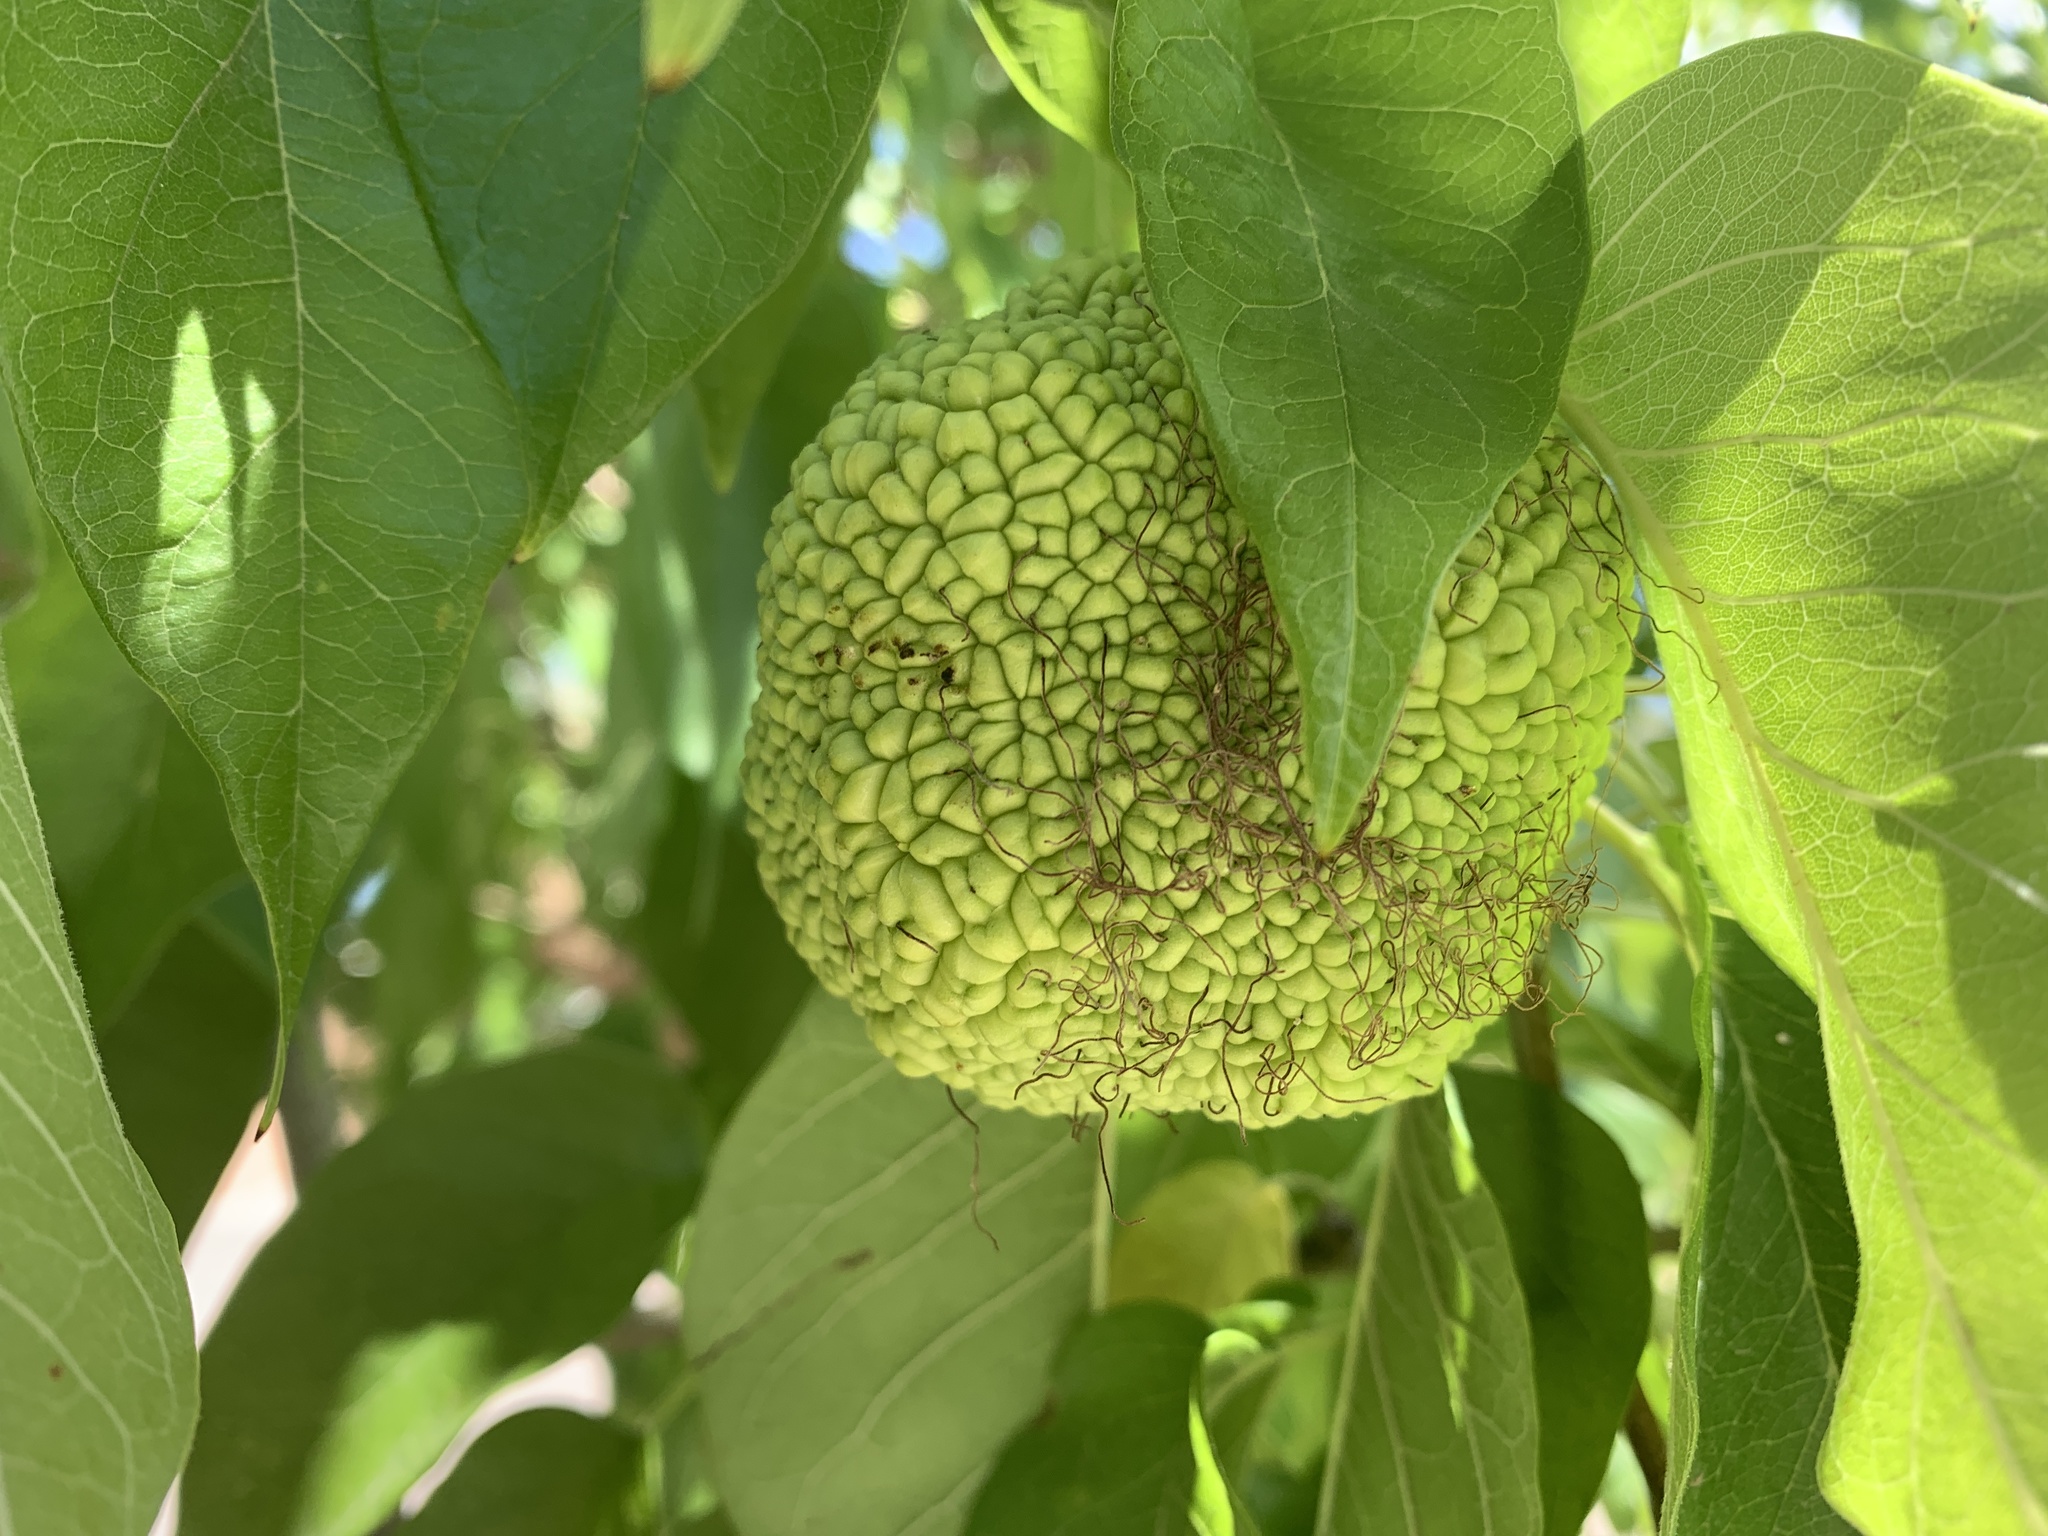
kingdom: Plantae
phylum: Tracheophyta
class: Magnoliopsida
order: Rosales
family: Moraceae
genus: Maclura
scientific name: Maclura pomifera
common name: Osage-orange
